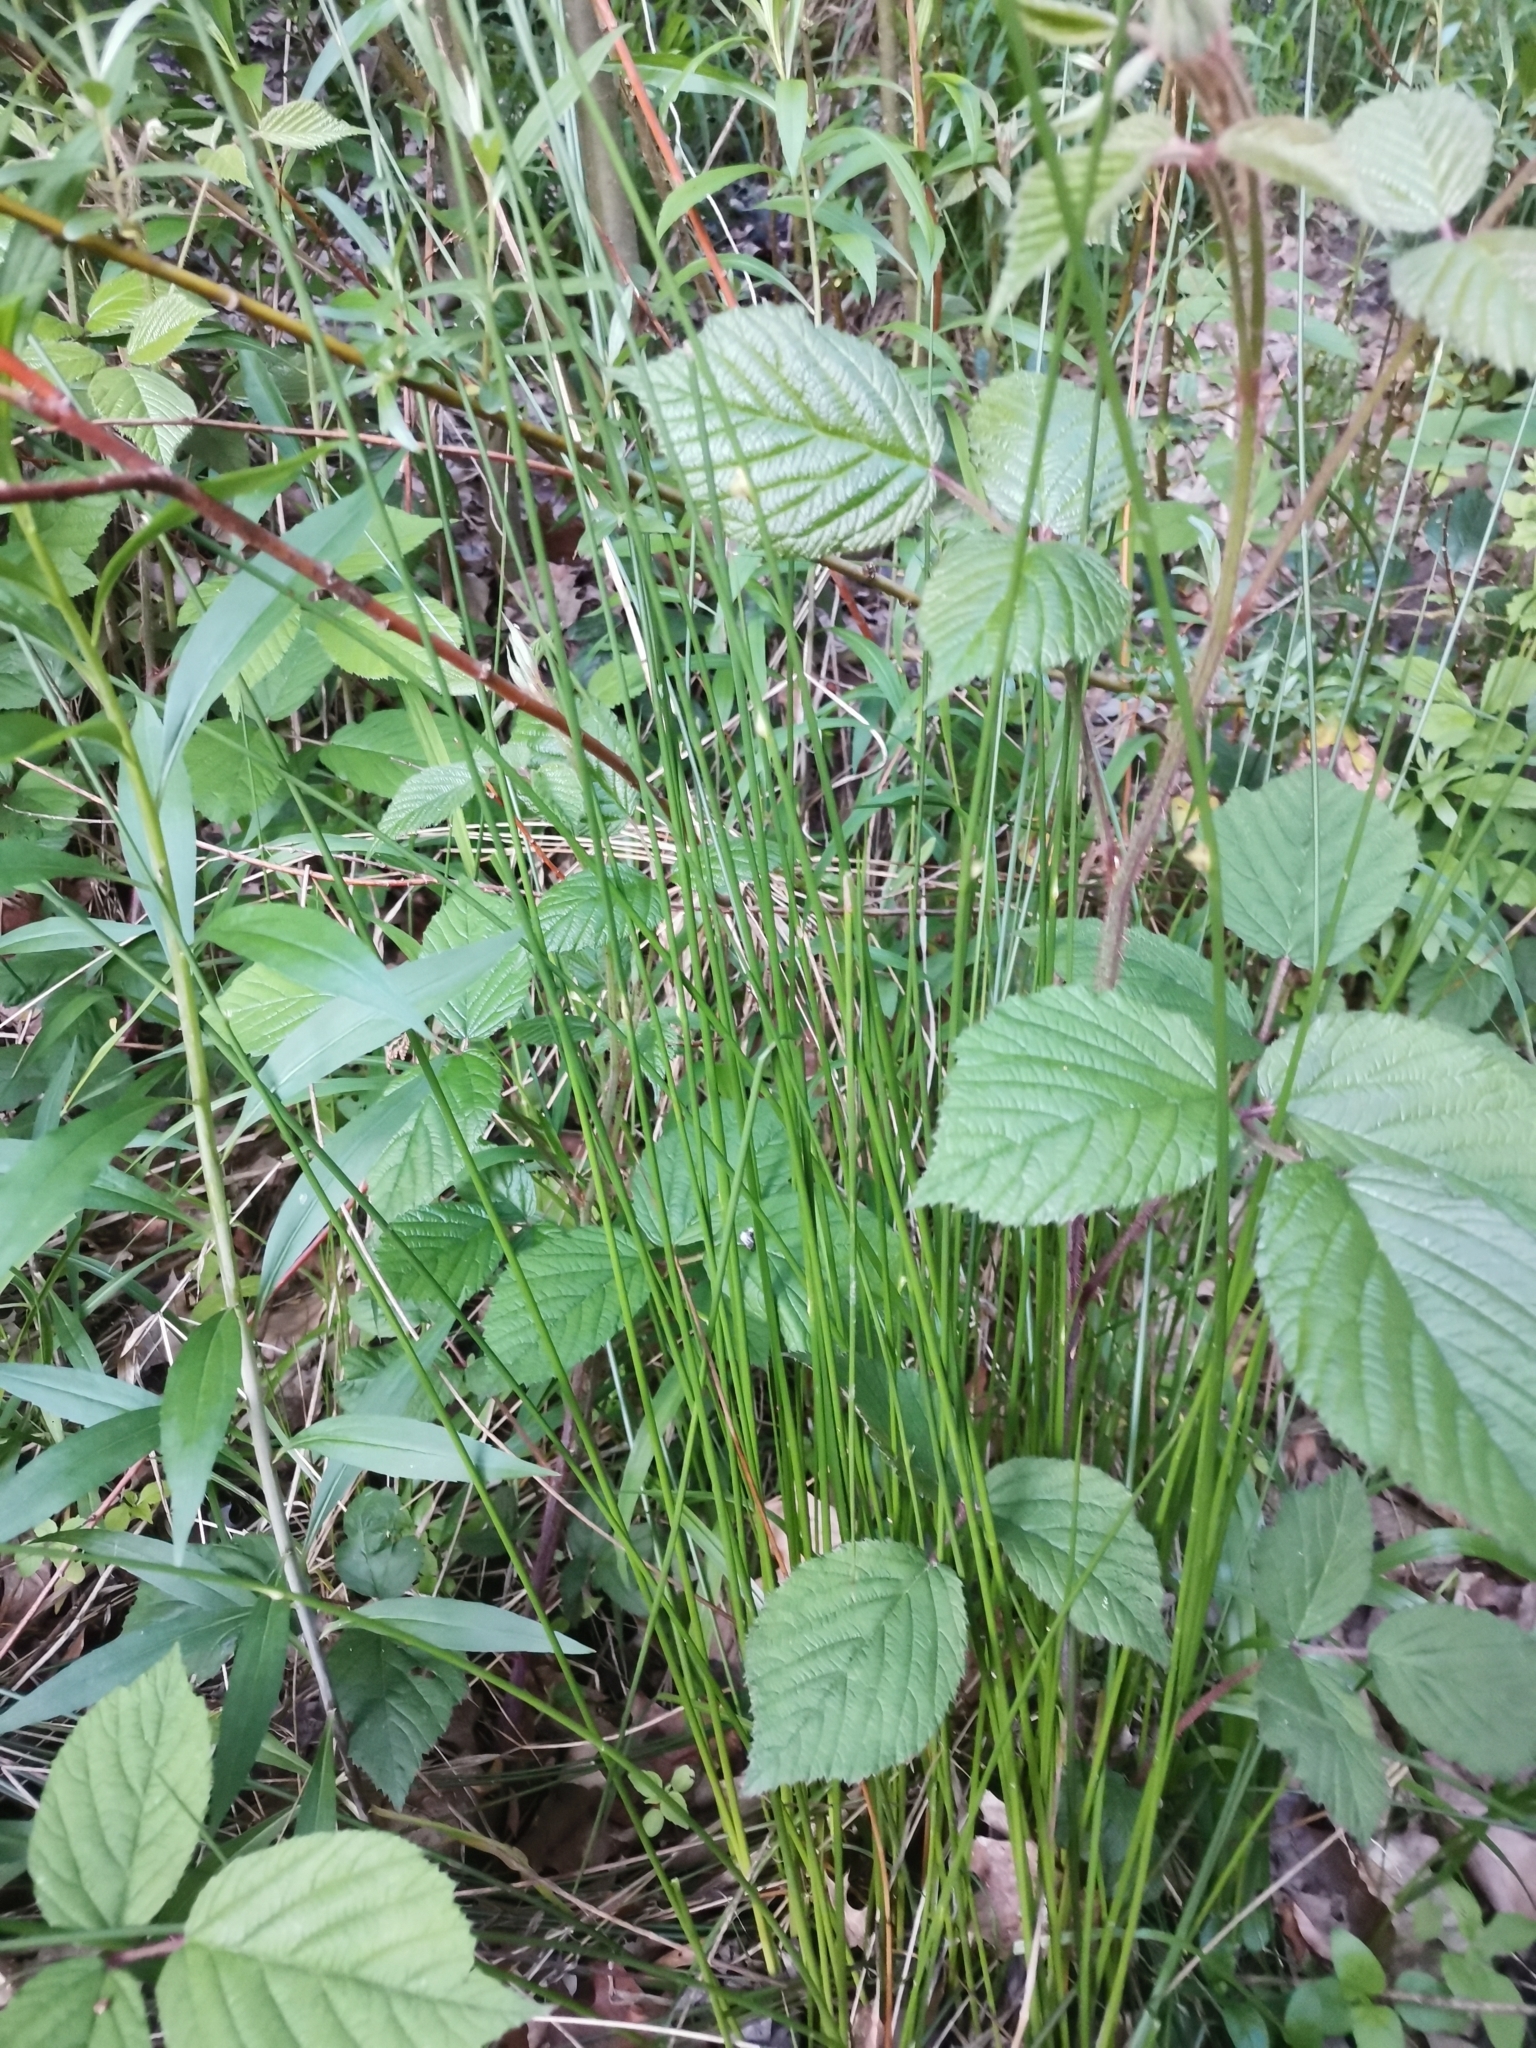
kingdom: Plantae
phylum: Tracheophyta
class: Liliopsida
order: Poales
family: Juncaceae
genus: Juncus
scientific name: Juncus effusus
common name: Soft rush
